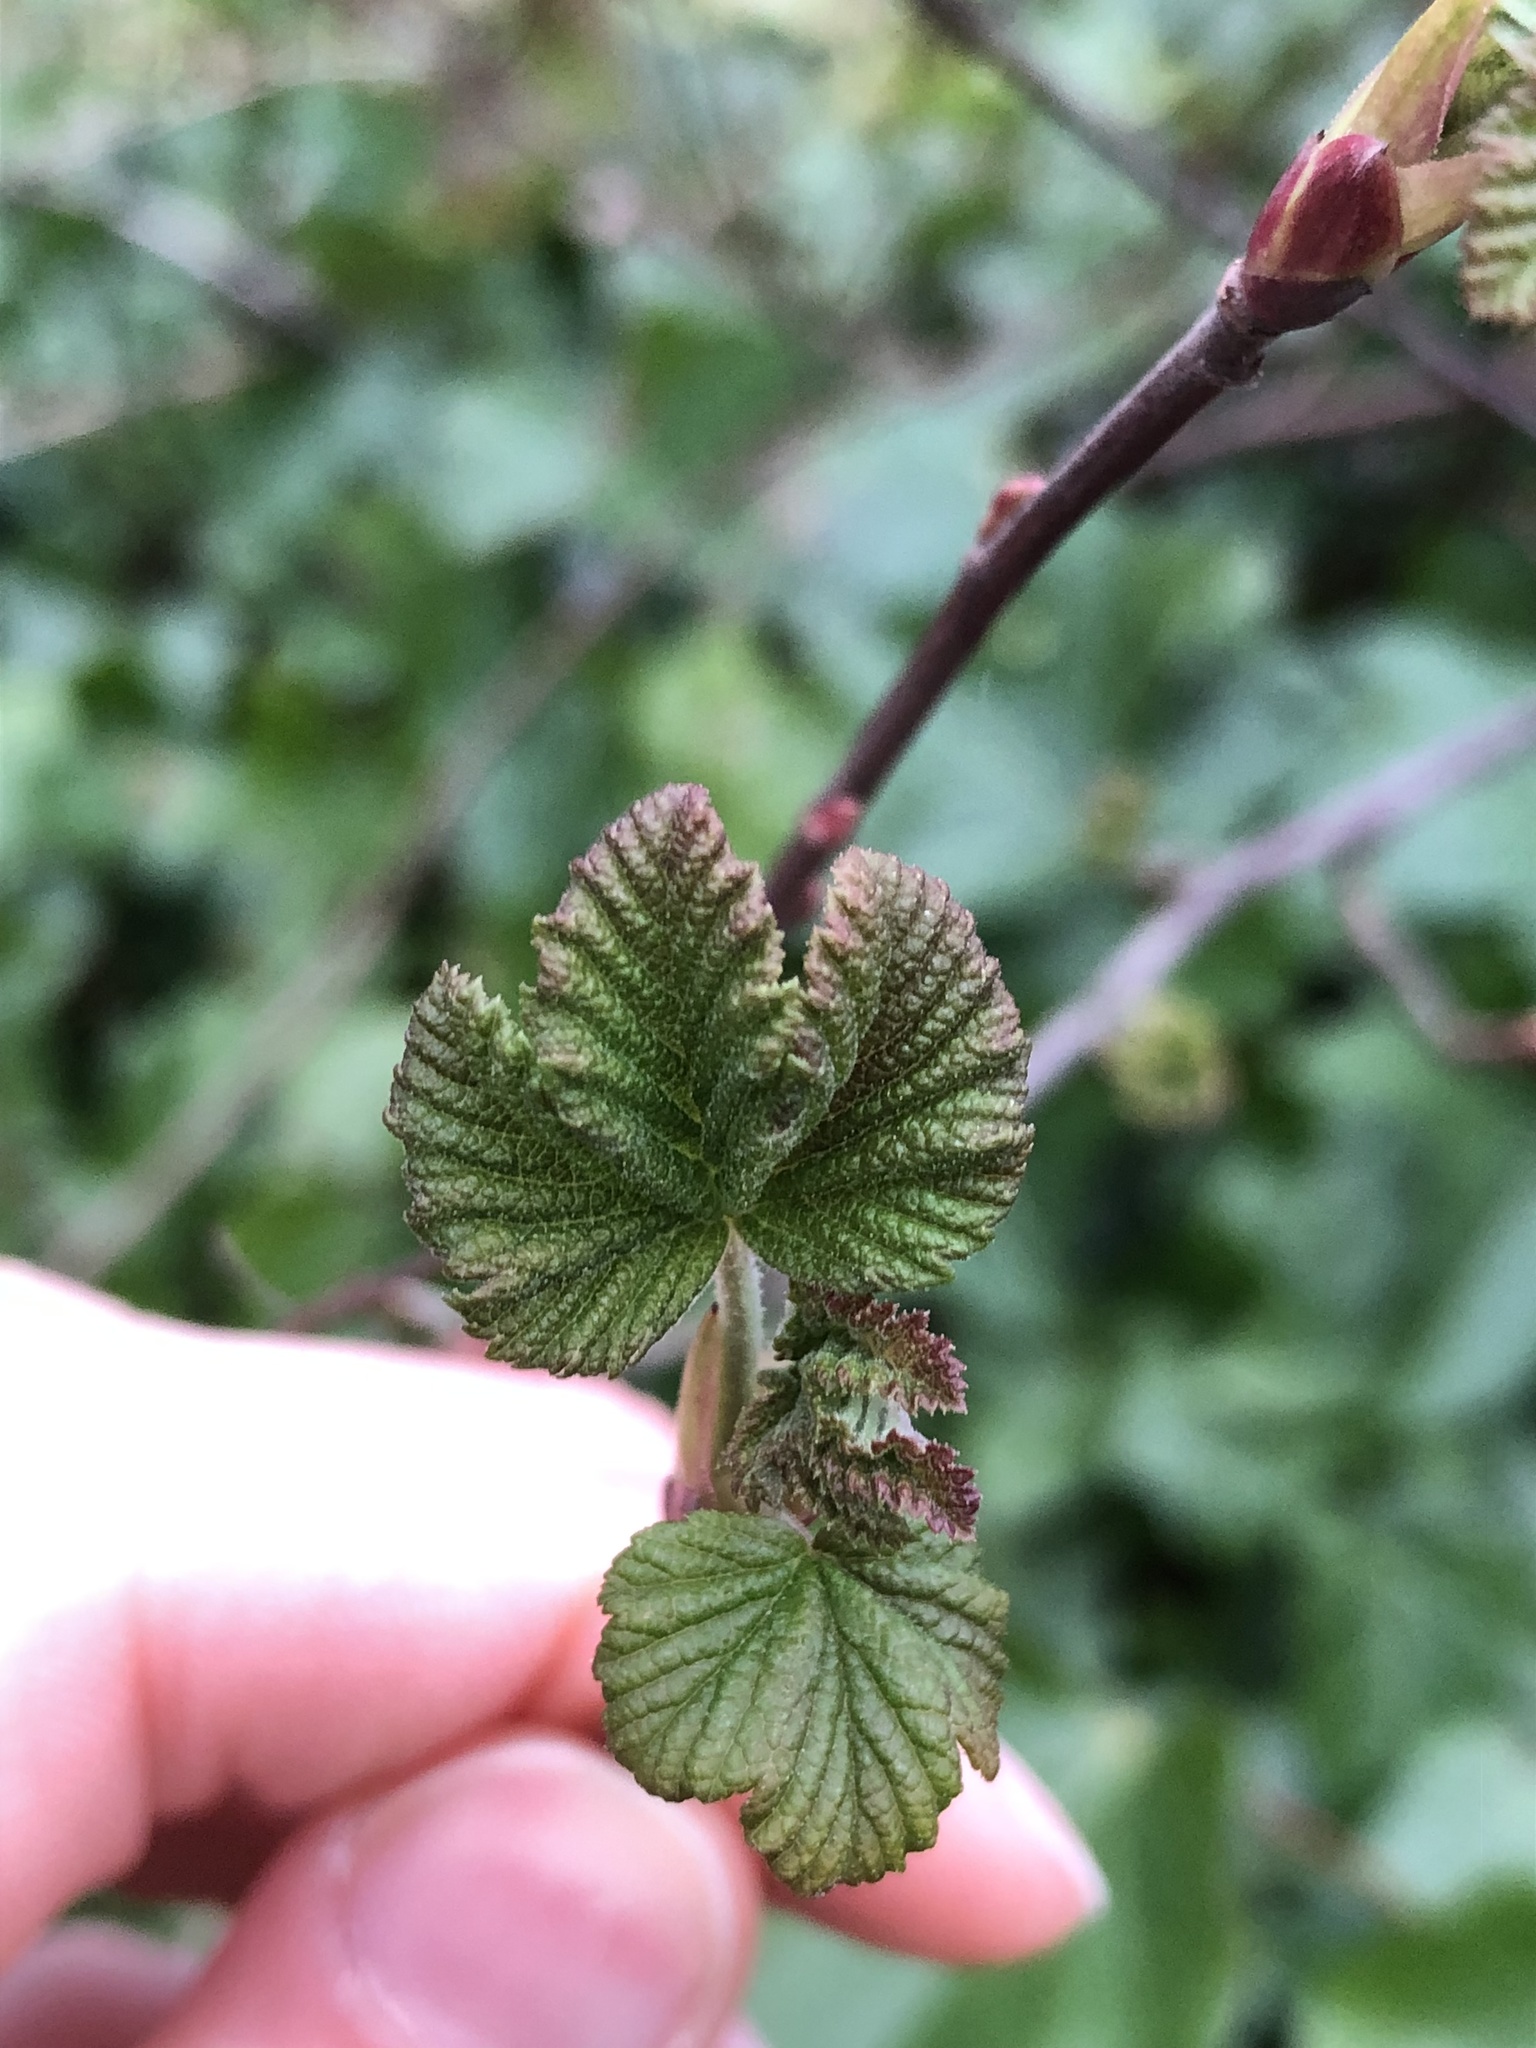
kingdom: Plantae
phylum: Tracheophyta
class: Magnoliopsida
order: Saxifragales
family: Grossulariaceae
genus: Ribes
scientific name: Ribes sanguineum
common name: Flowering currant
